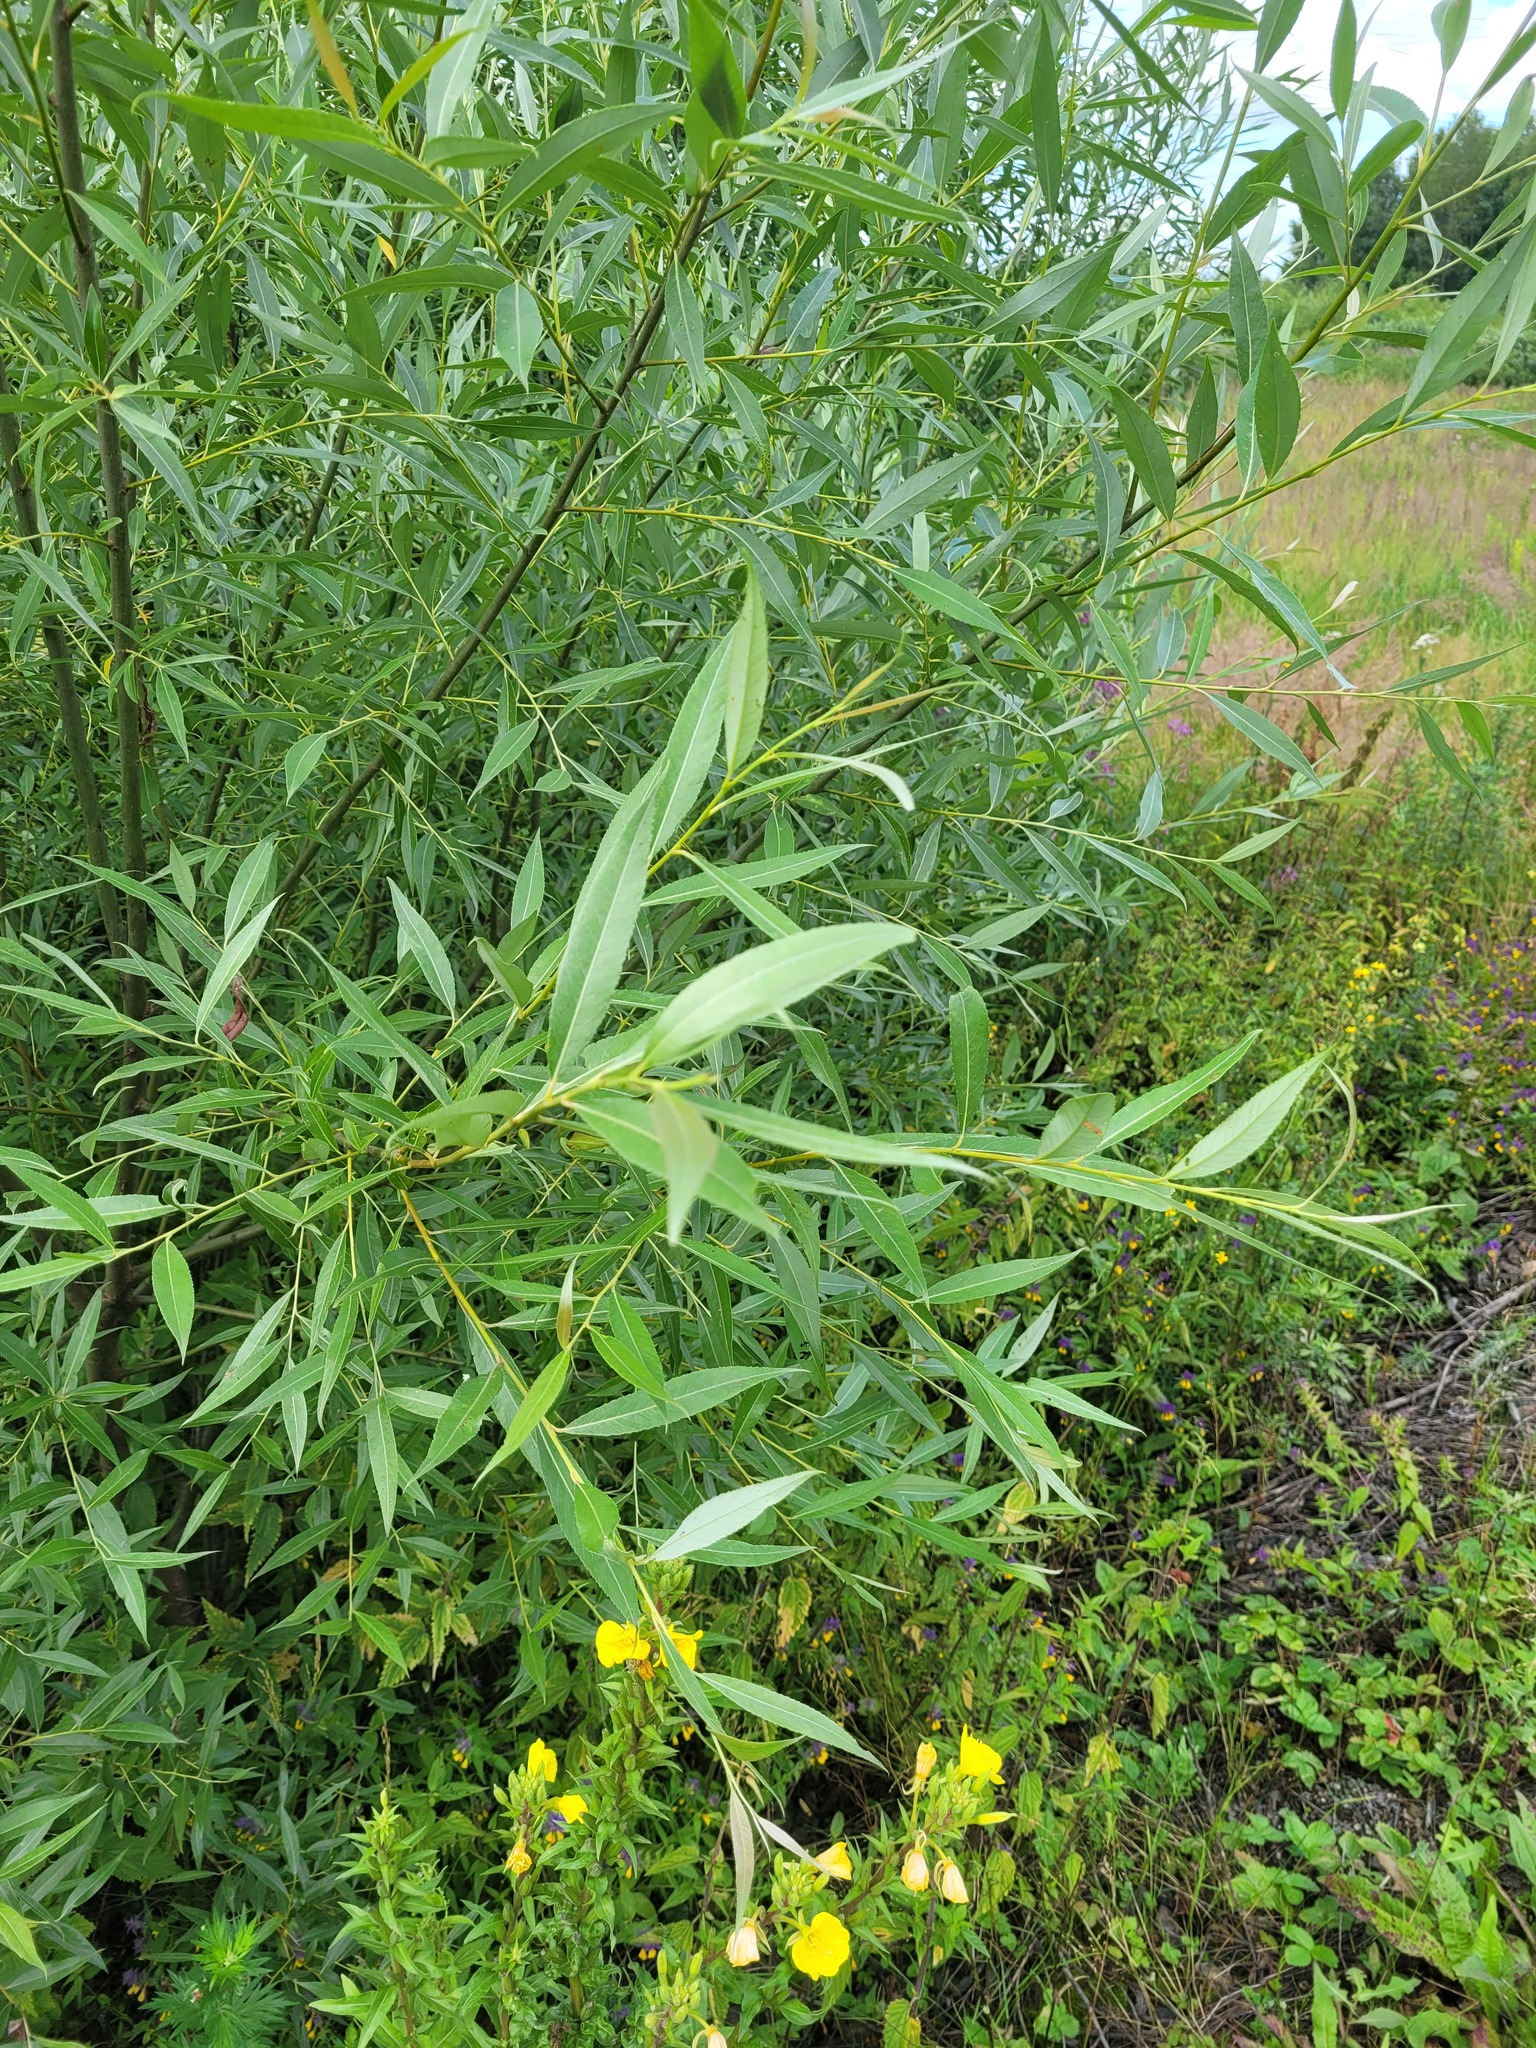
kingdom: Plantae
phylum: Tracheophyta
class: Magnoliopsida
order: Malpighiales
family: Salicaceae
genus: Salix
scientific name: Salix fragilis
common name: Crack willow
